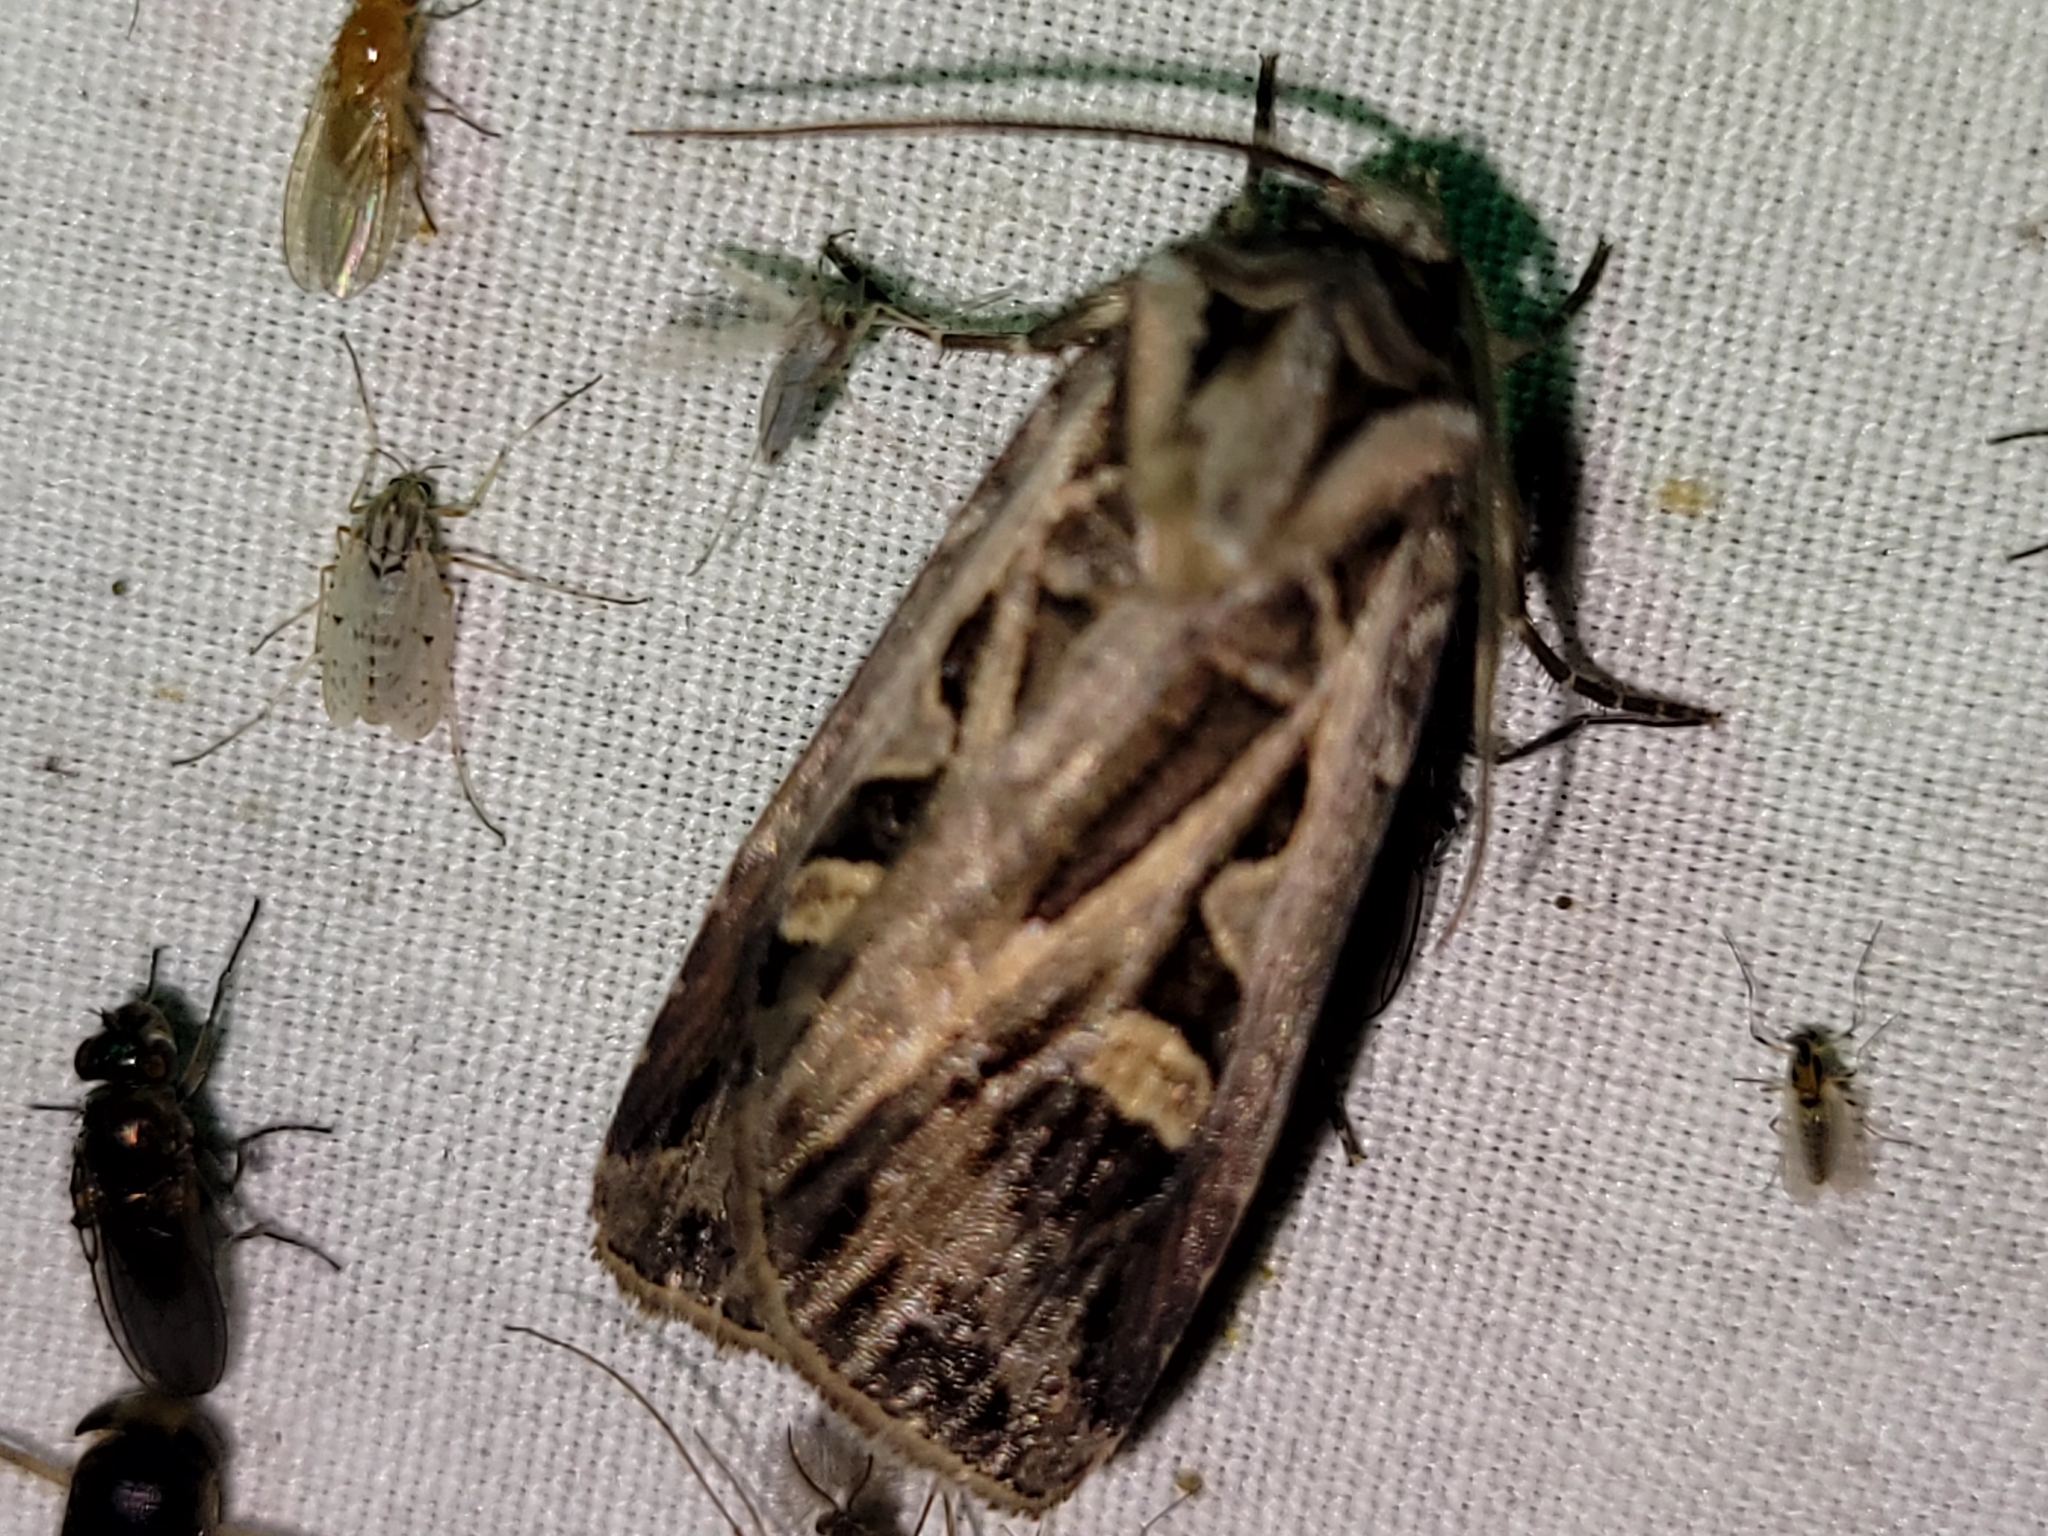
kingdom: Animalia
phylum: Arthropoda
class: Insecta
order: Lepidoptera
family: Noctuidae
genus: Feltia
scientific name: Feltia herilis
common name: Master's dart
